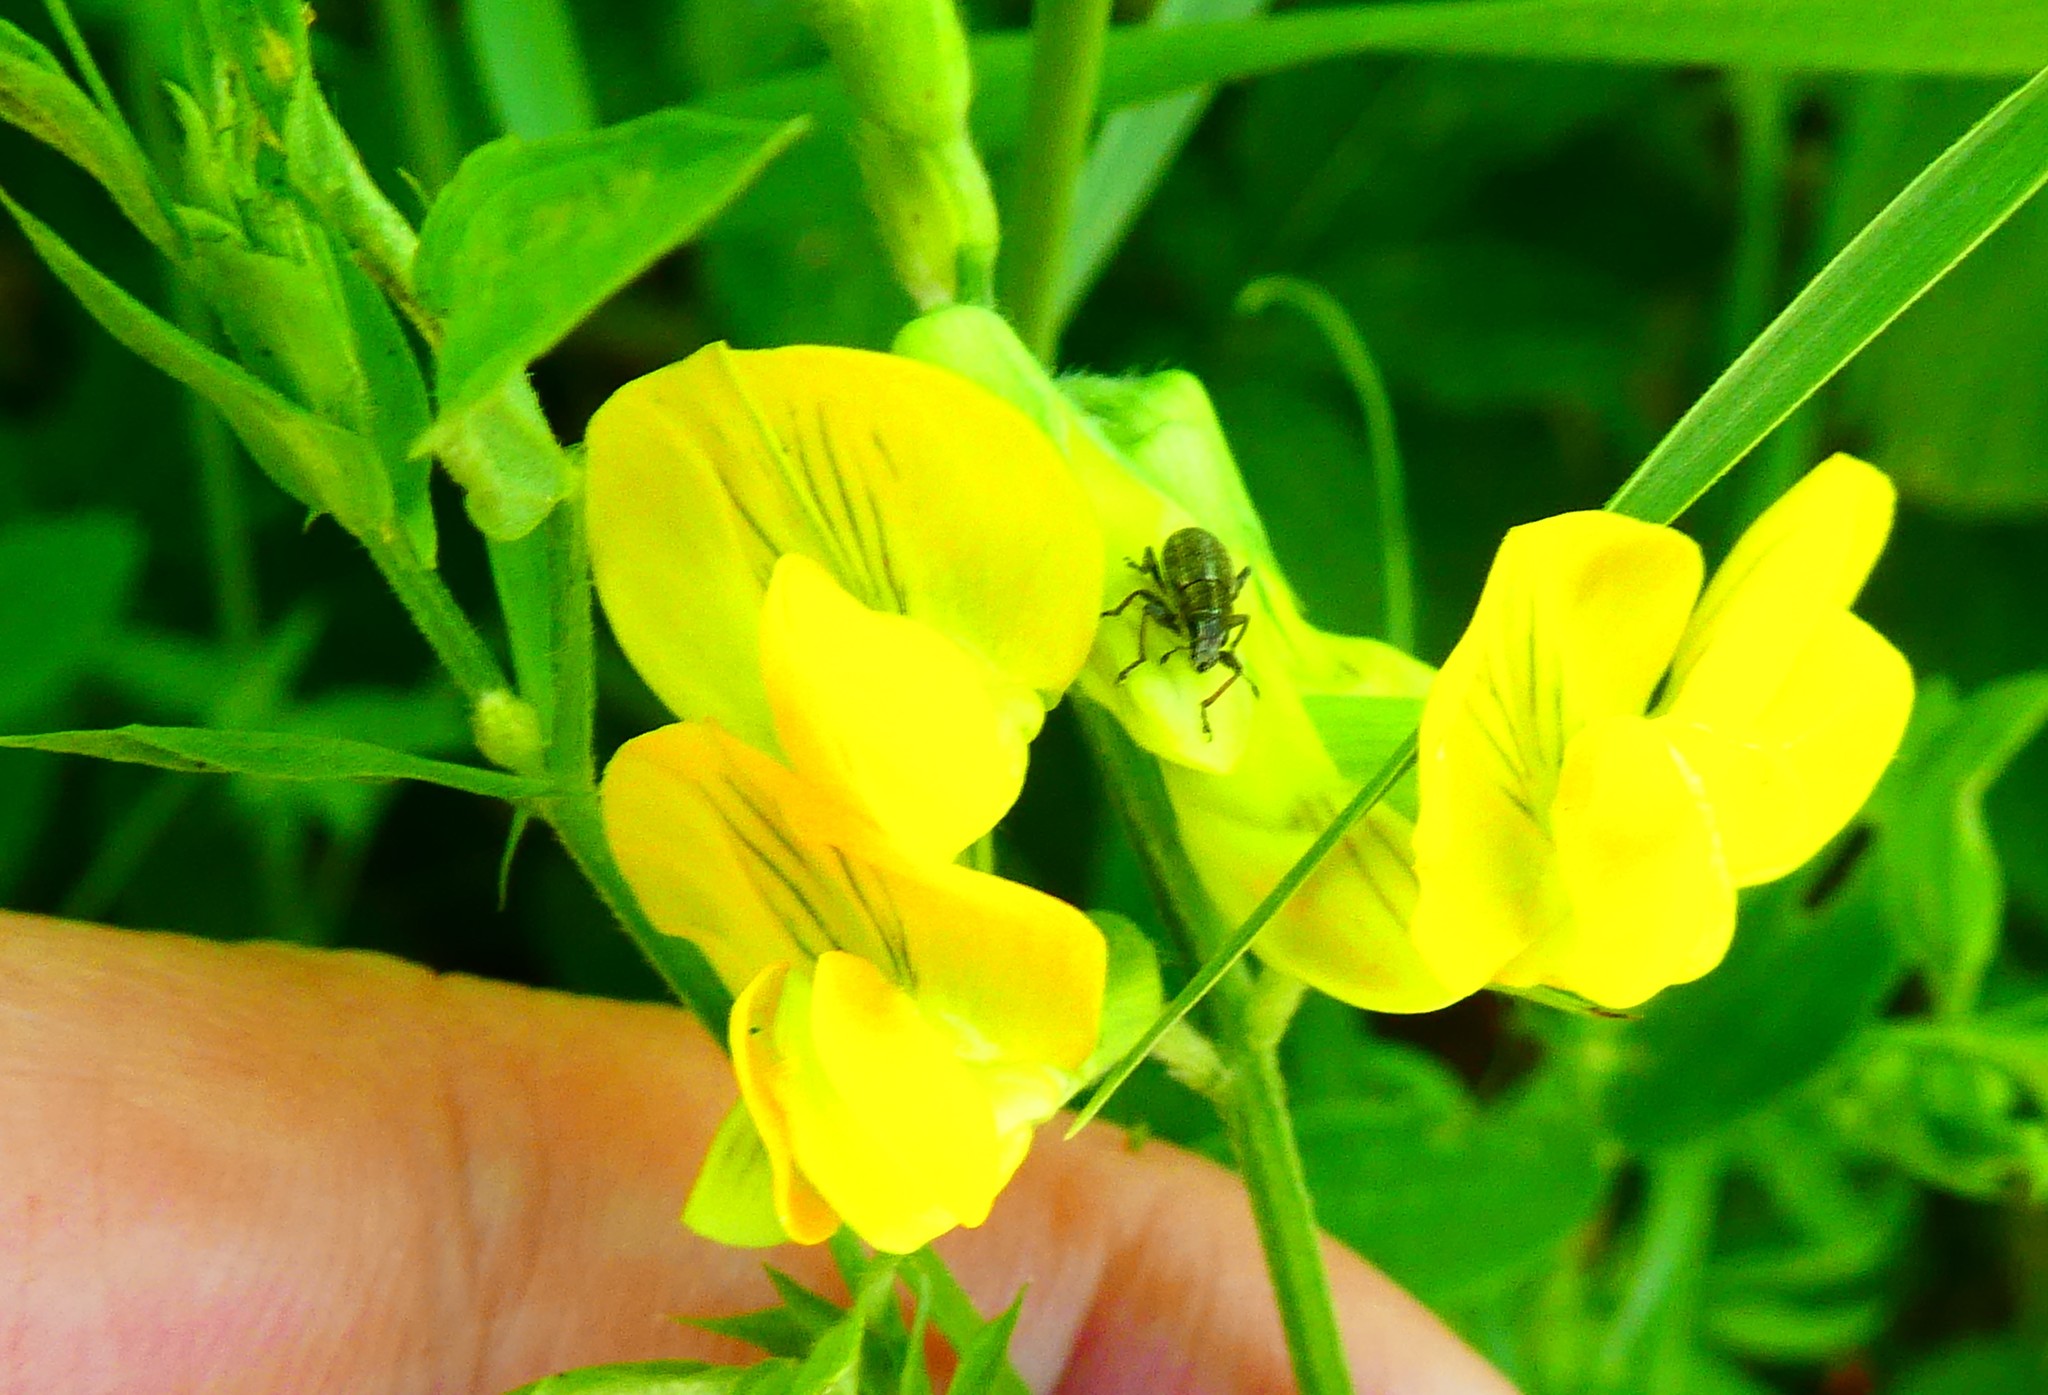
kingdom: Plantae
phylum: Tracheophyta
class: Magnoliopsida
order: Fabales
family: Fabaceae
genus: Lathyrus
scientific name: Lathyrus pratensis
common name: Meadow vetchling
